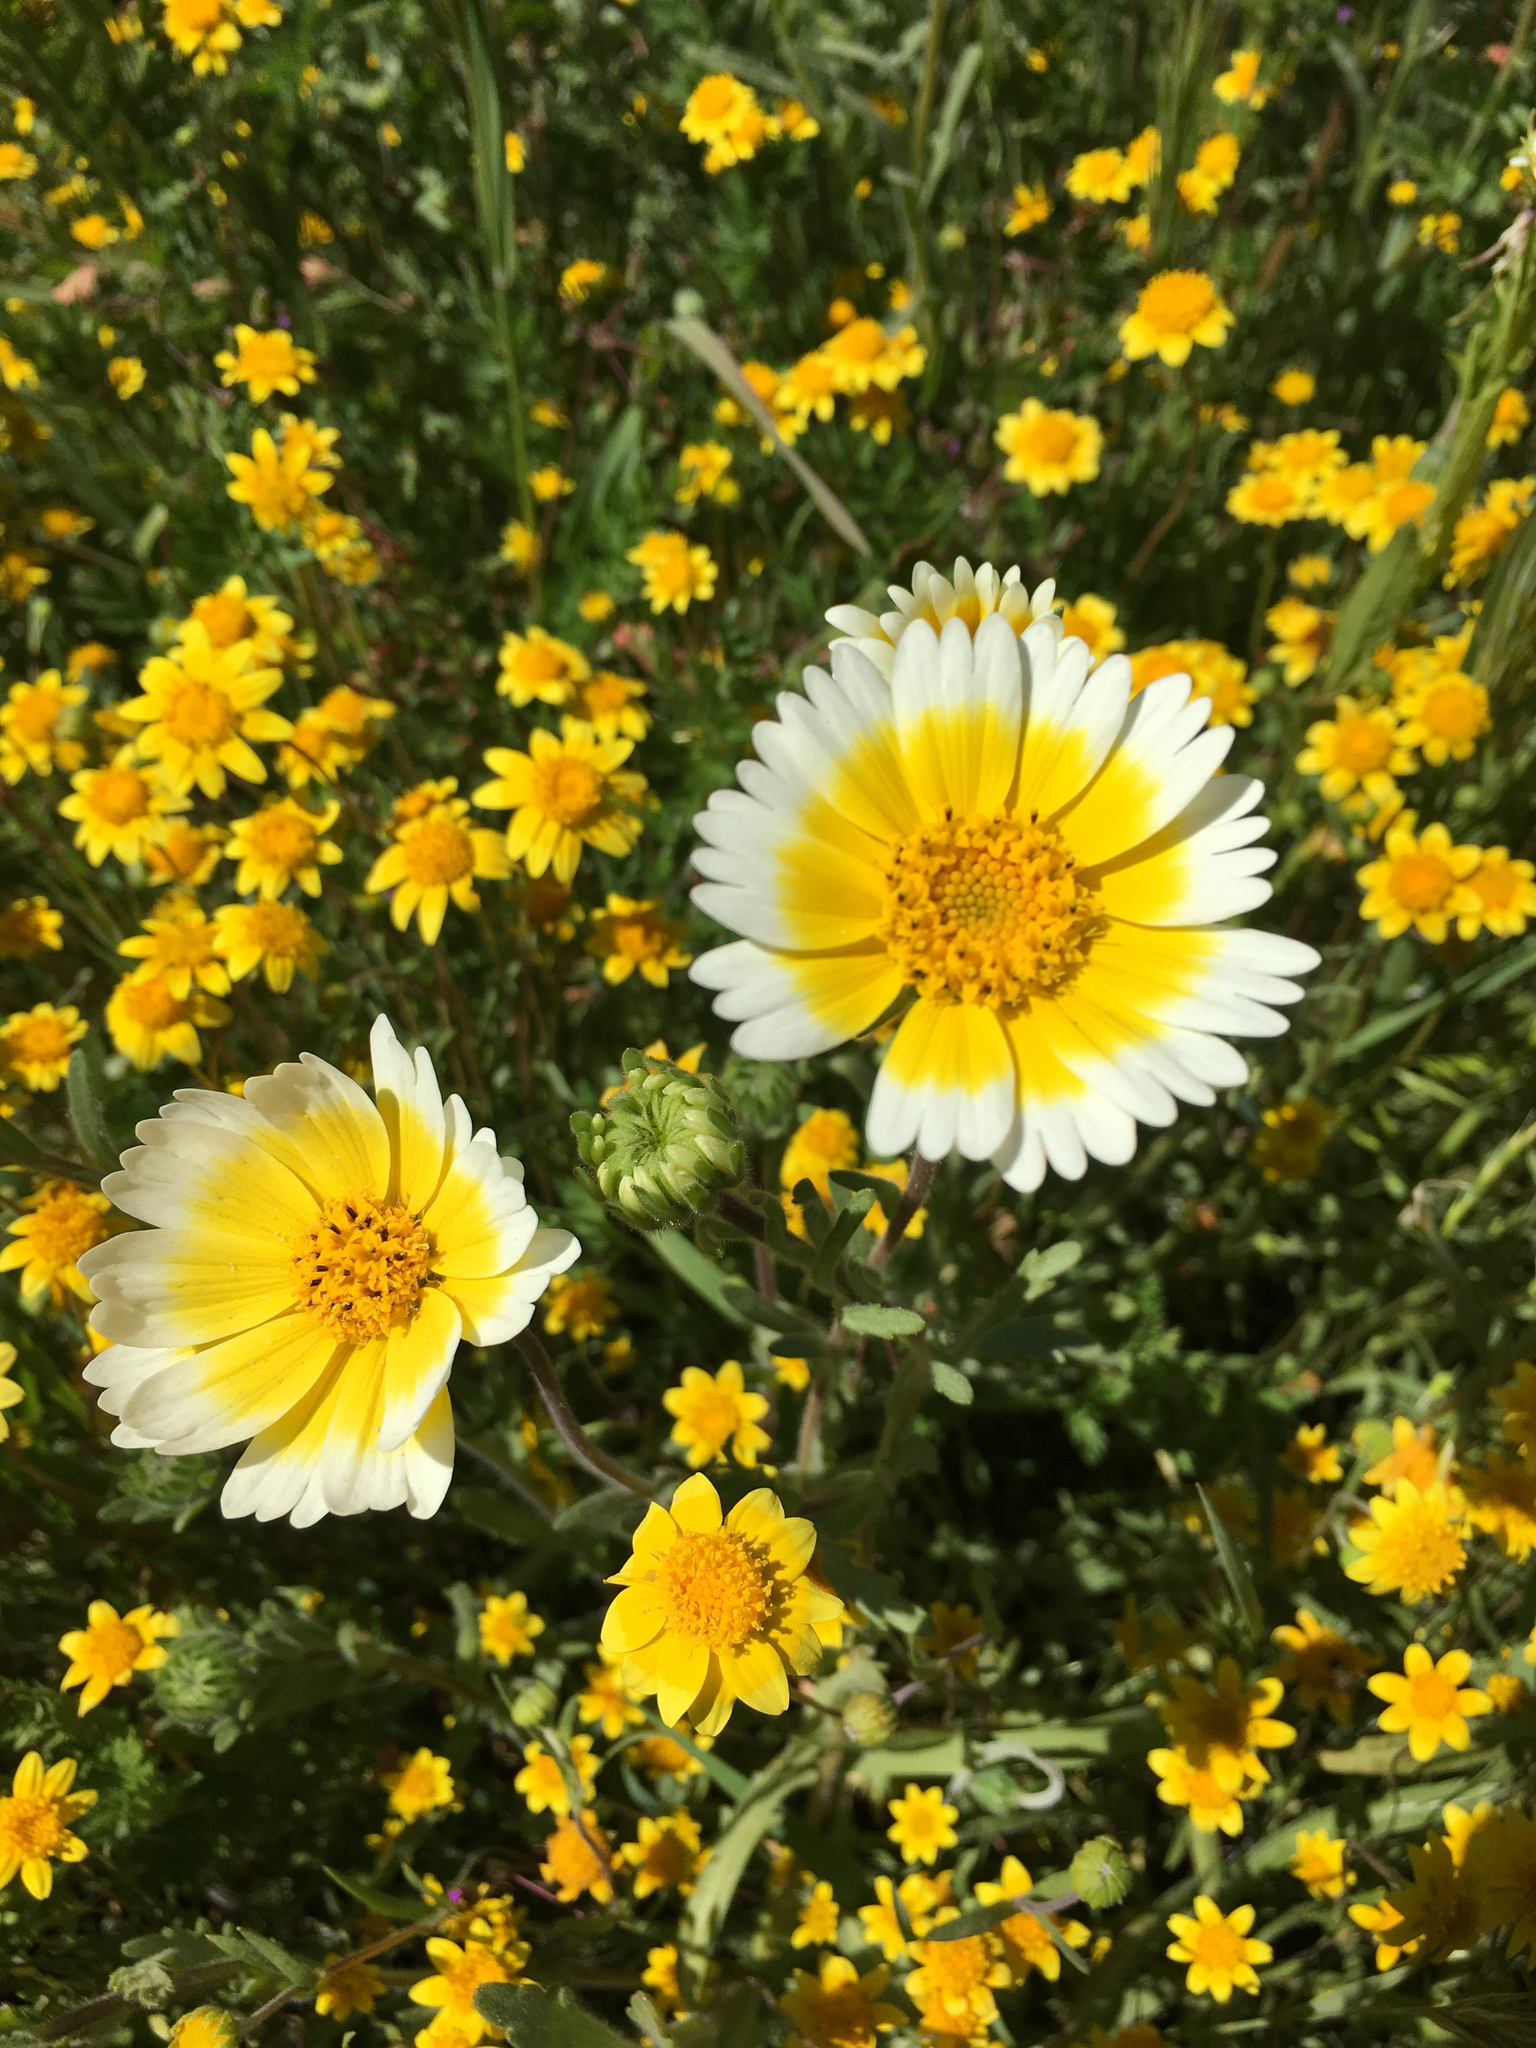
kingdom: Plantae
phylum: Tracheophyta
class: Magnoliopsida
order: Asterales
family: Asteraceae
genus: Layia
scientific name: Layia platyglossa
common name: Tidy-tips
